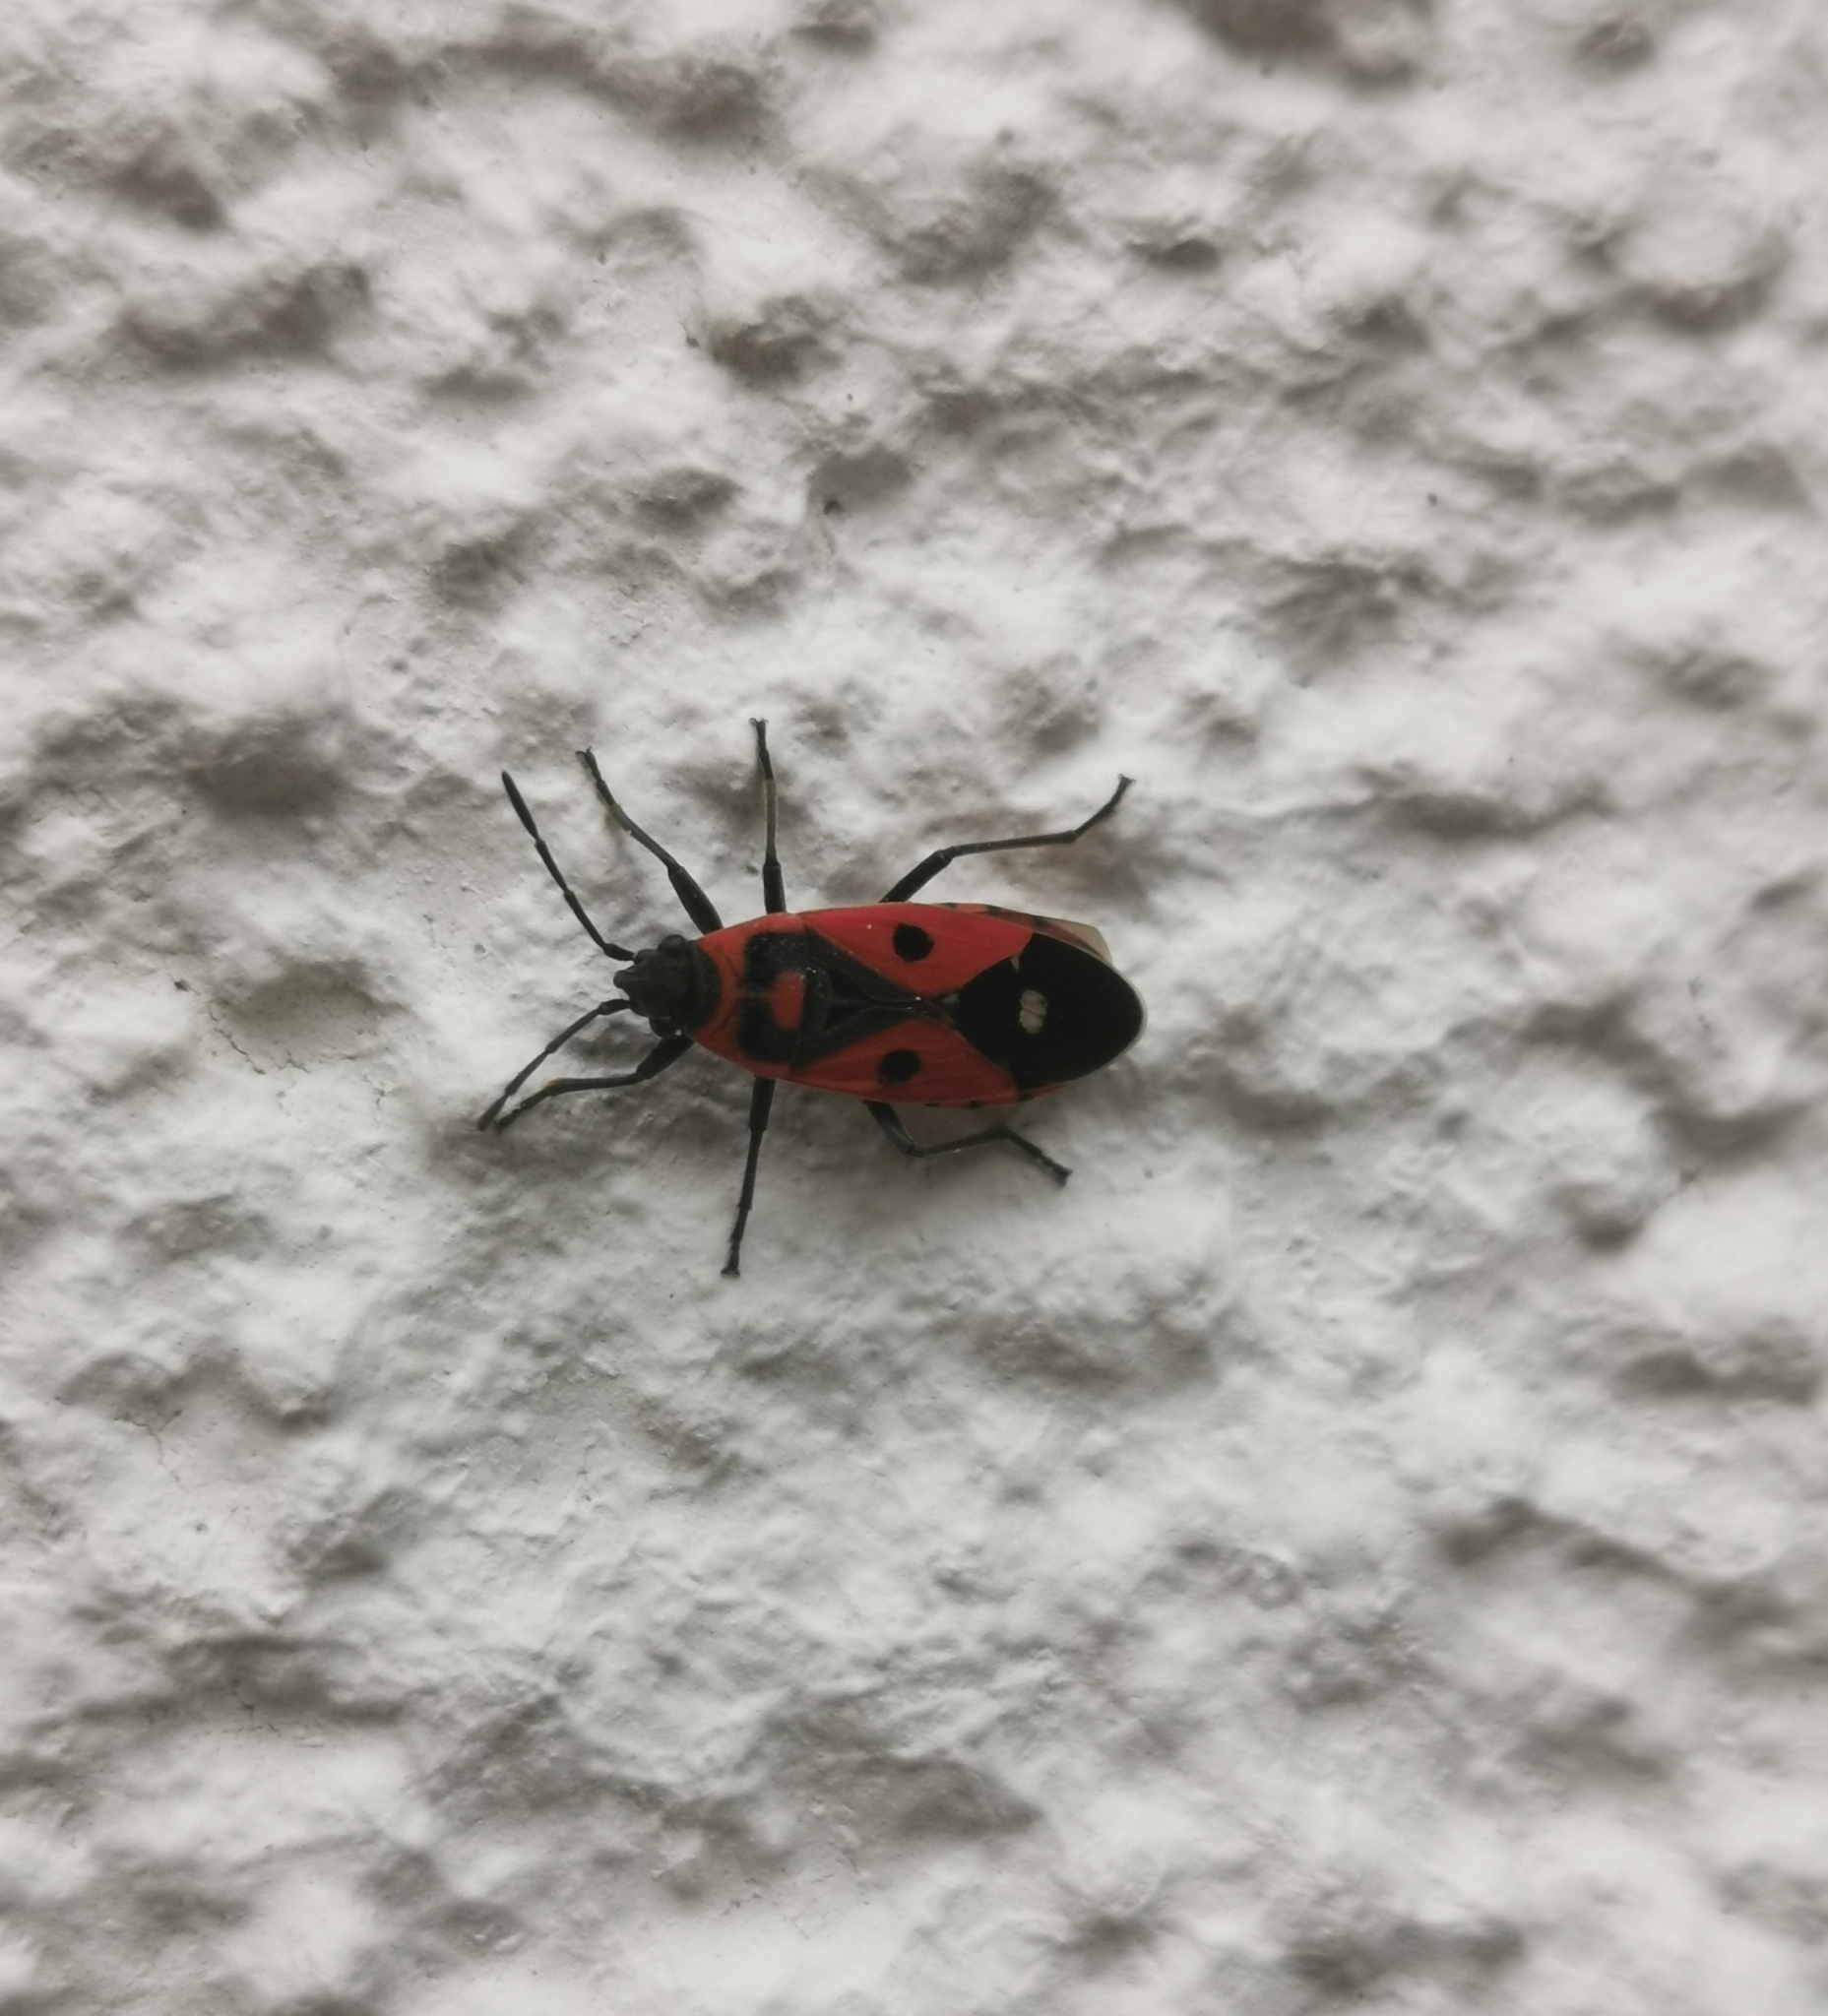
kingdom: Animalia
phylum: Arthropoda
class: Insecta
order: Hemiptera
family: Lygaeidae
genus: Melanocoryphus
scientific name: Melanocoryphus albomaculatus
